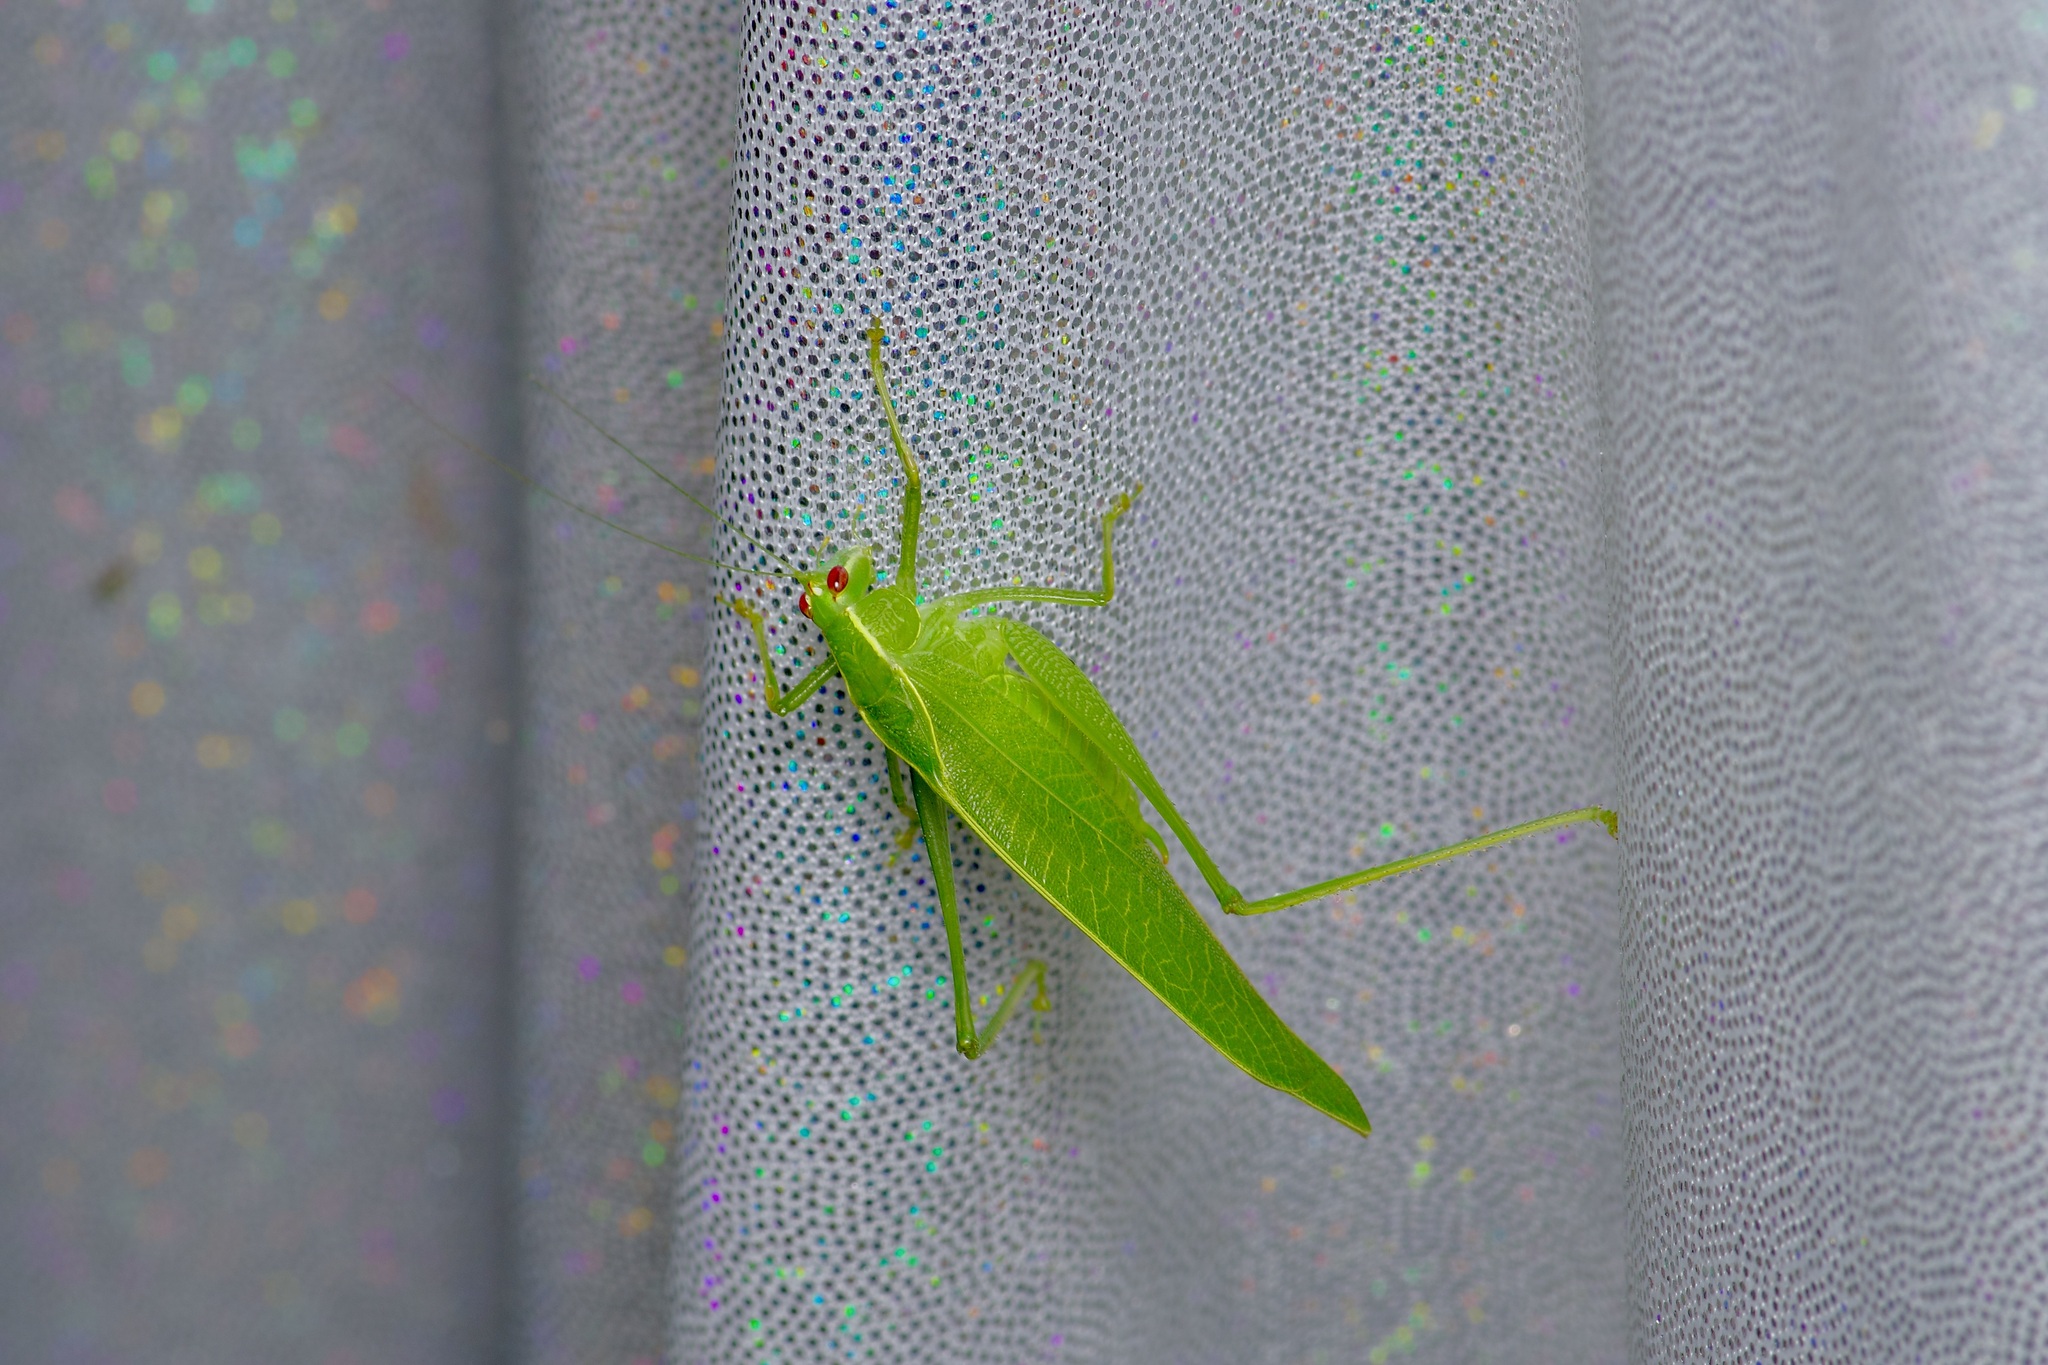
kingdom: Animalia
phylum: Arthropoda
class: Insecta
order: Orthoptera
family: Tettigoniidae
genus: Montezumina
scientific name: Montezumina modesta
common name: Modest katydid
